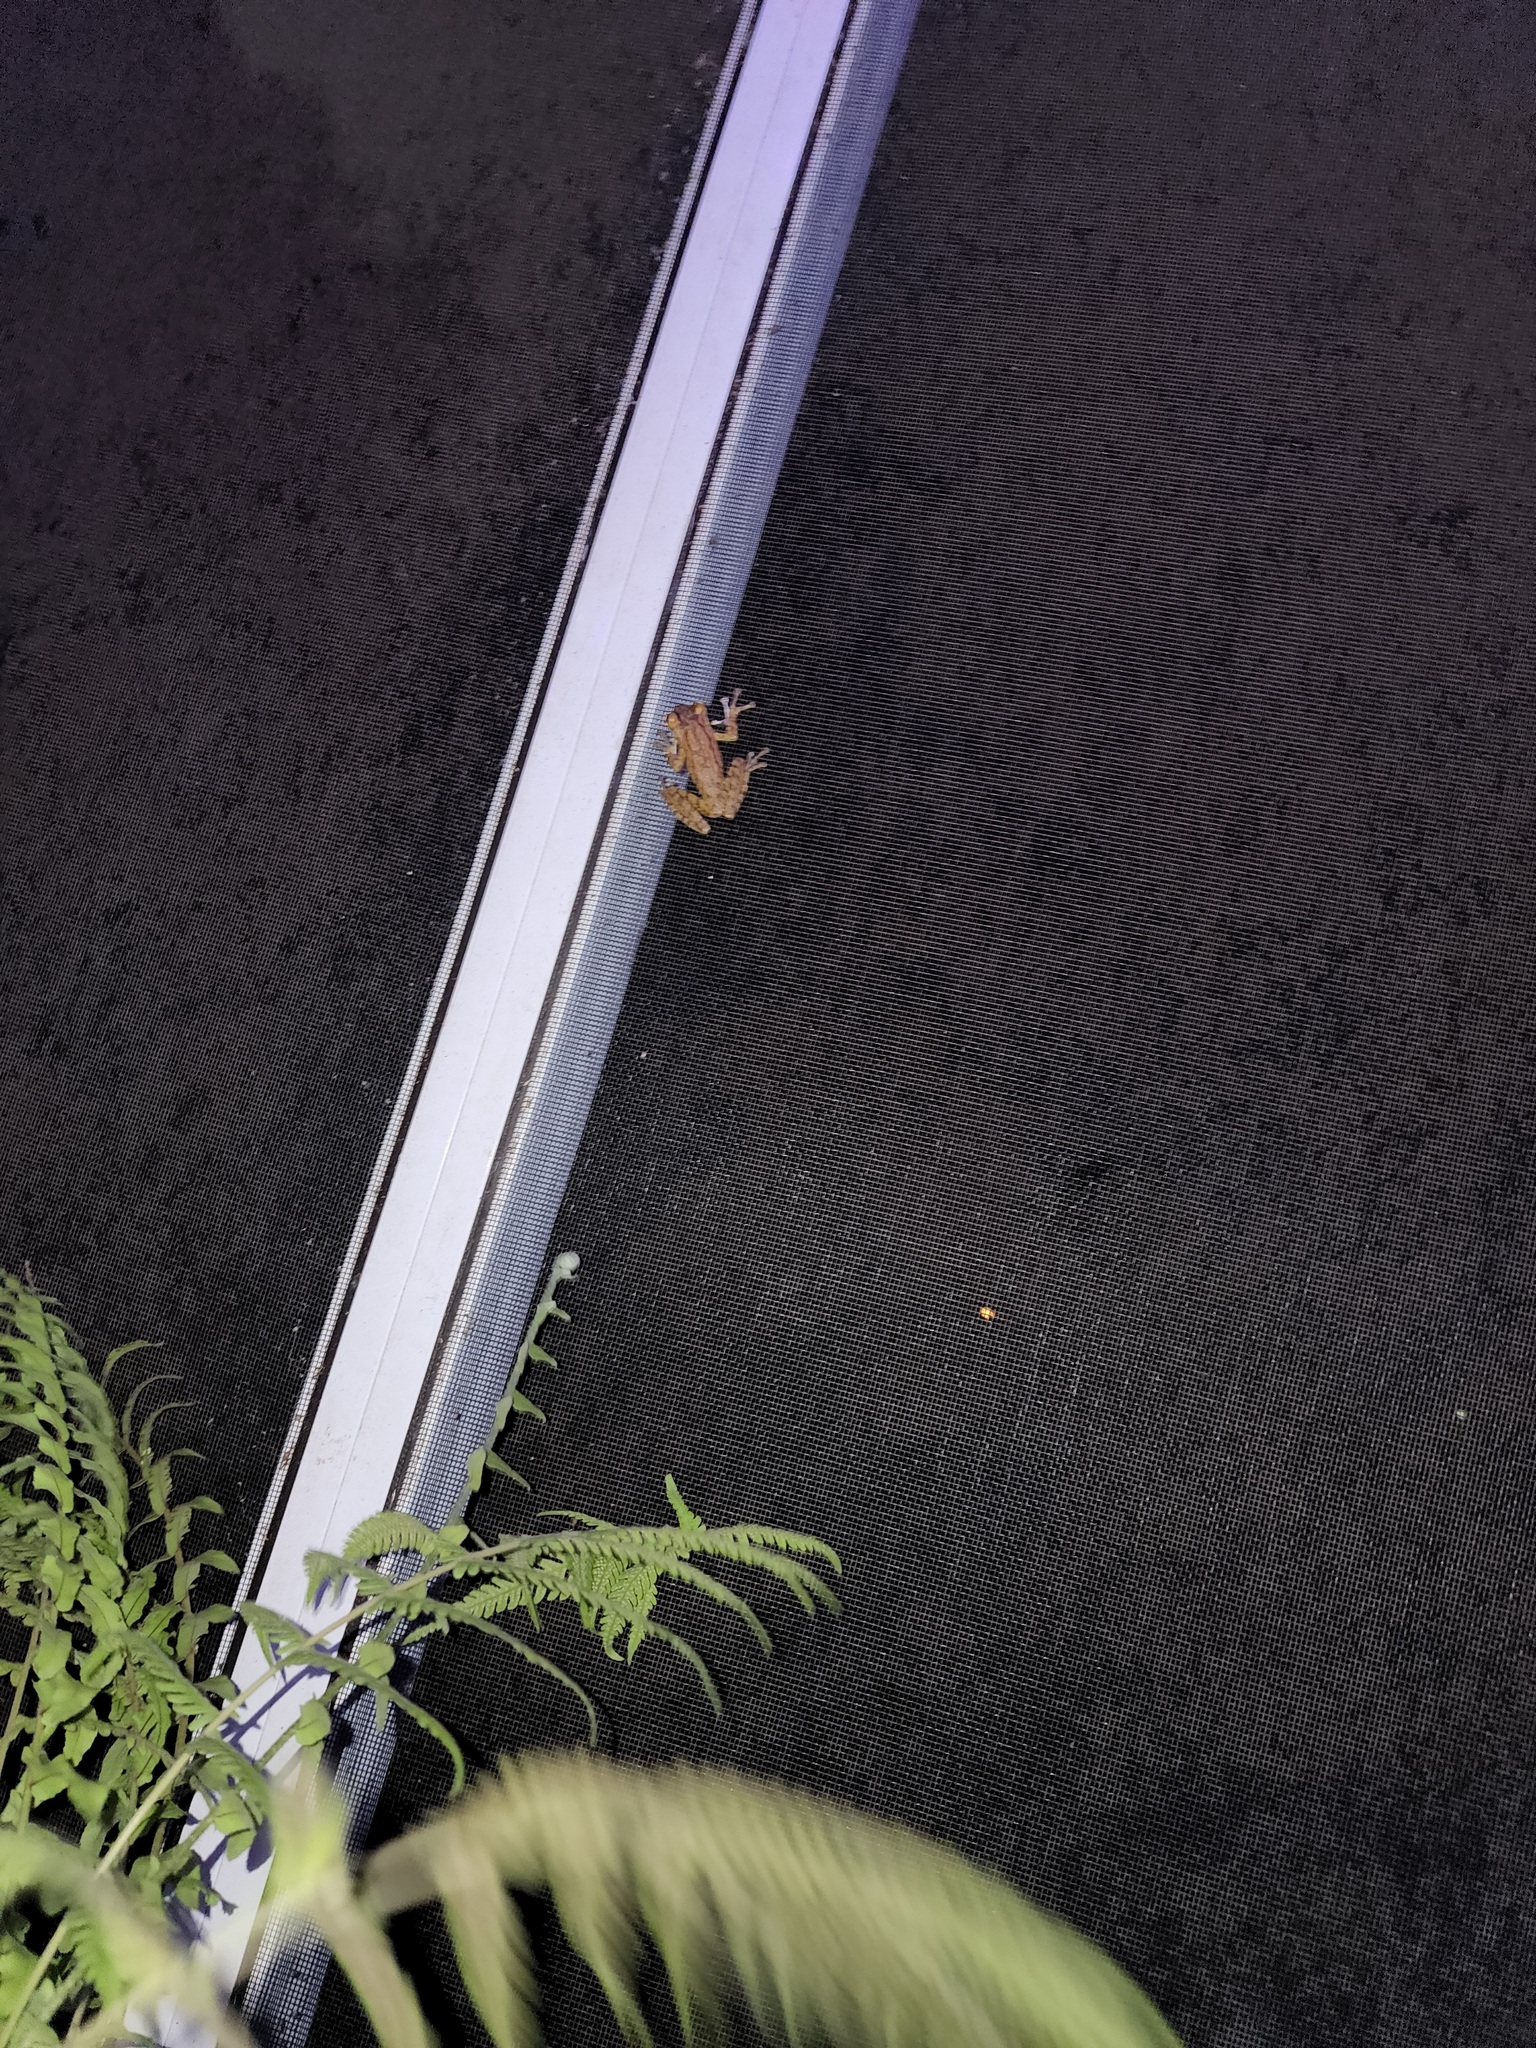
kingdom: Animalia
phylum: Chordata
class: Amphibia
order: Anura
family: Hylidae
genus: Osteopilus
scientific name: Osteopilus septentrionalis
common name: Cuban treefrog
